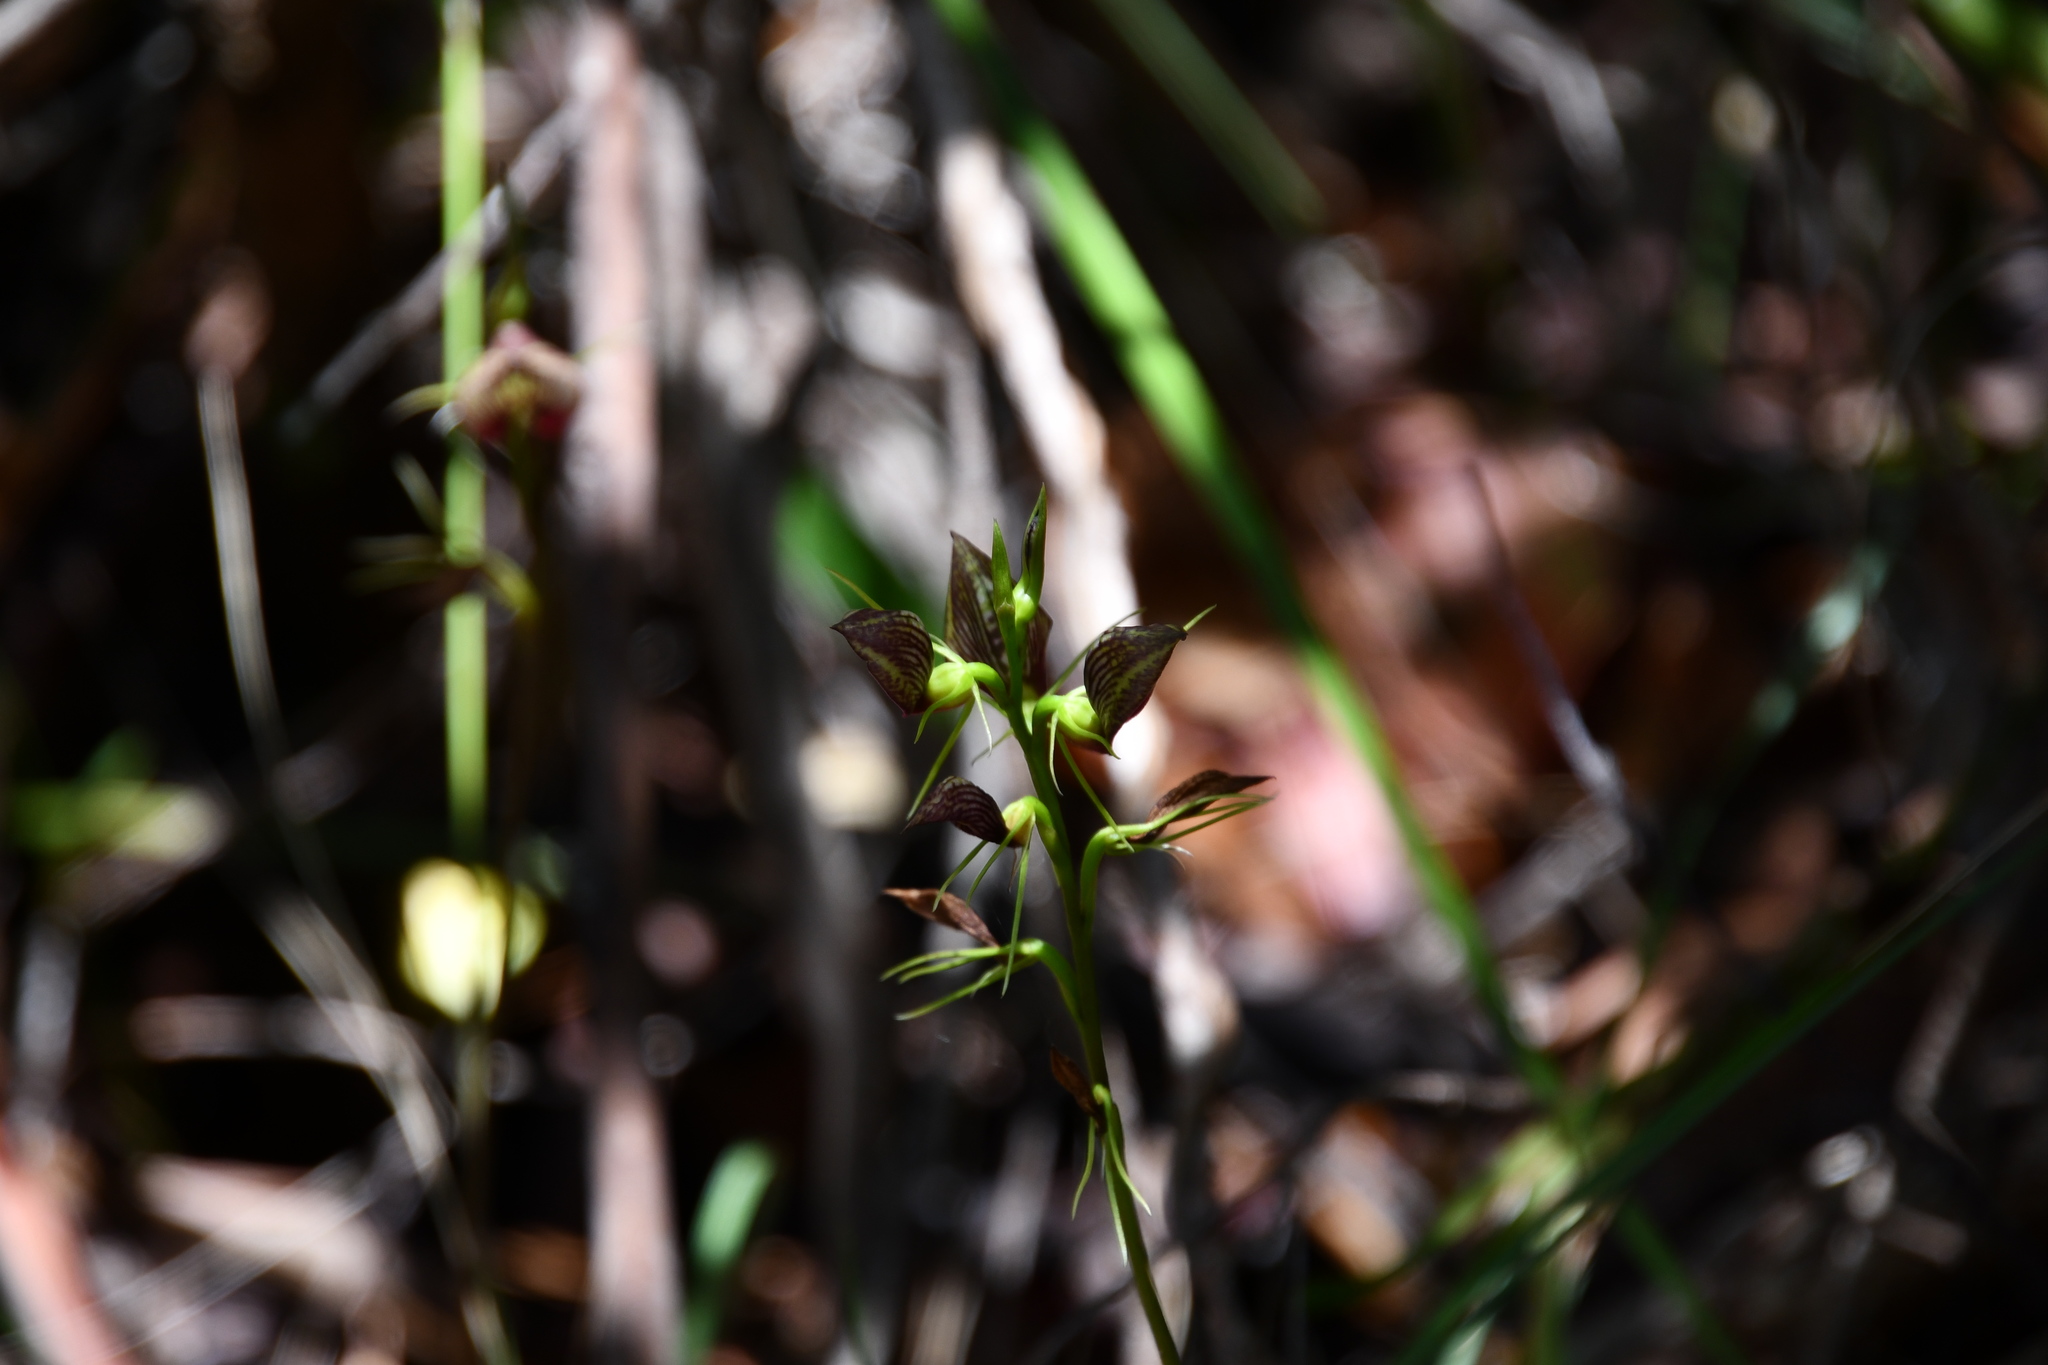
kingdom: Plantae
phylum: Tracheophyta
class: Liliopsida
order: Asparagales
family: Orchidaceae
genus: Cryptostylis
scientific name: Cryptostylis erecta
